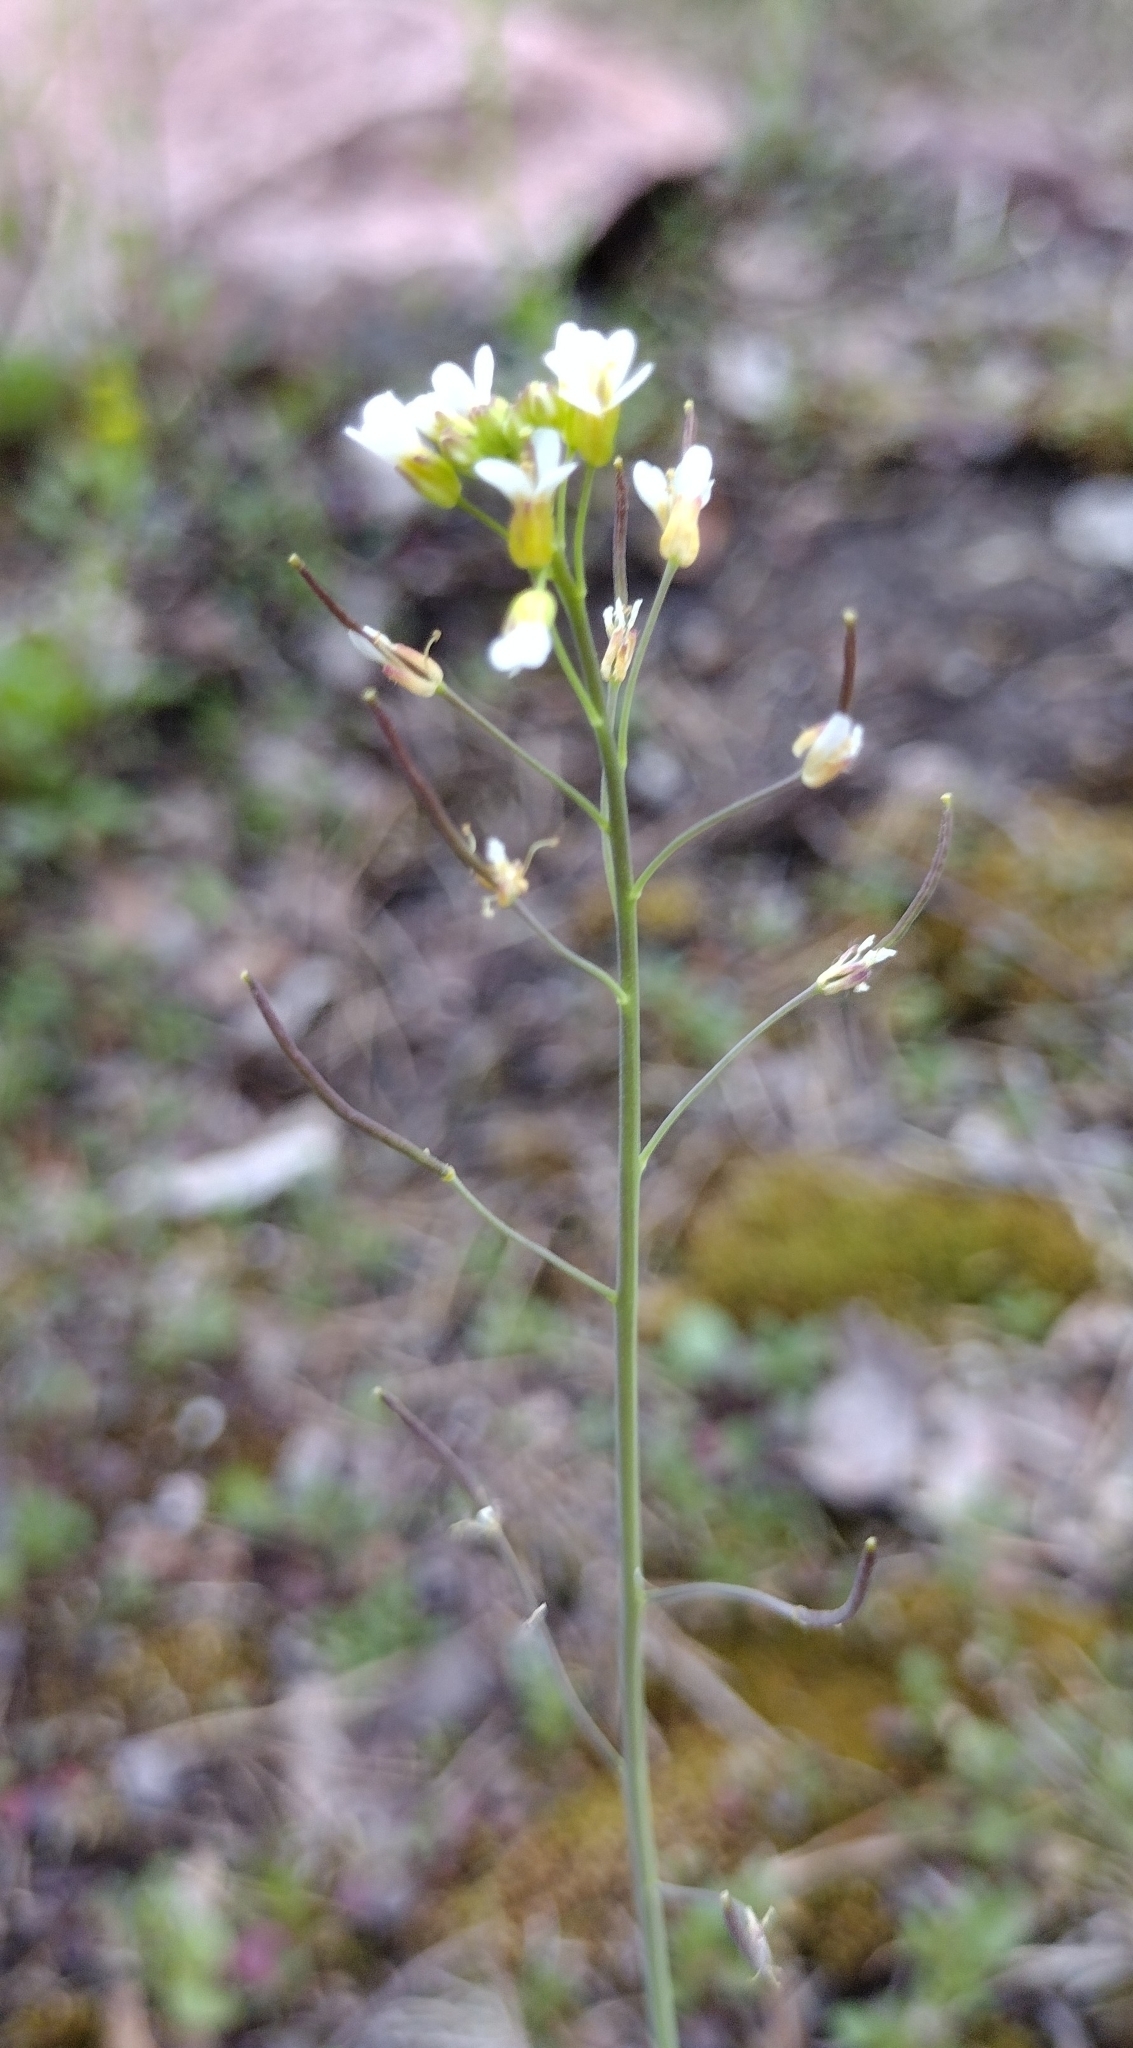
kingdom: Plantae
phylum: Tracheophyta
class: Magnoliopsida
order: Brassicales
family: Brassicaceae
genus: Arabidopsis
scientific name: Arabidopsis thaliana
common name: Thale cress
